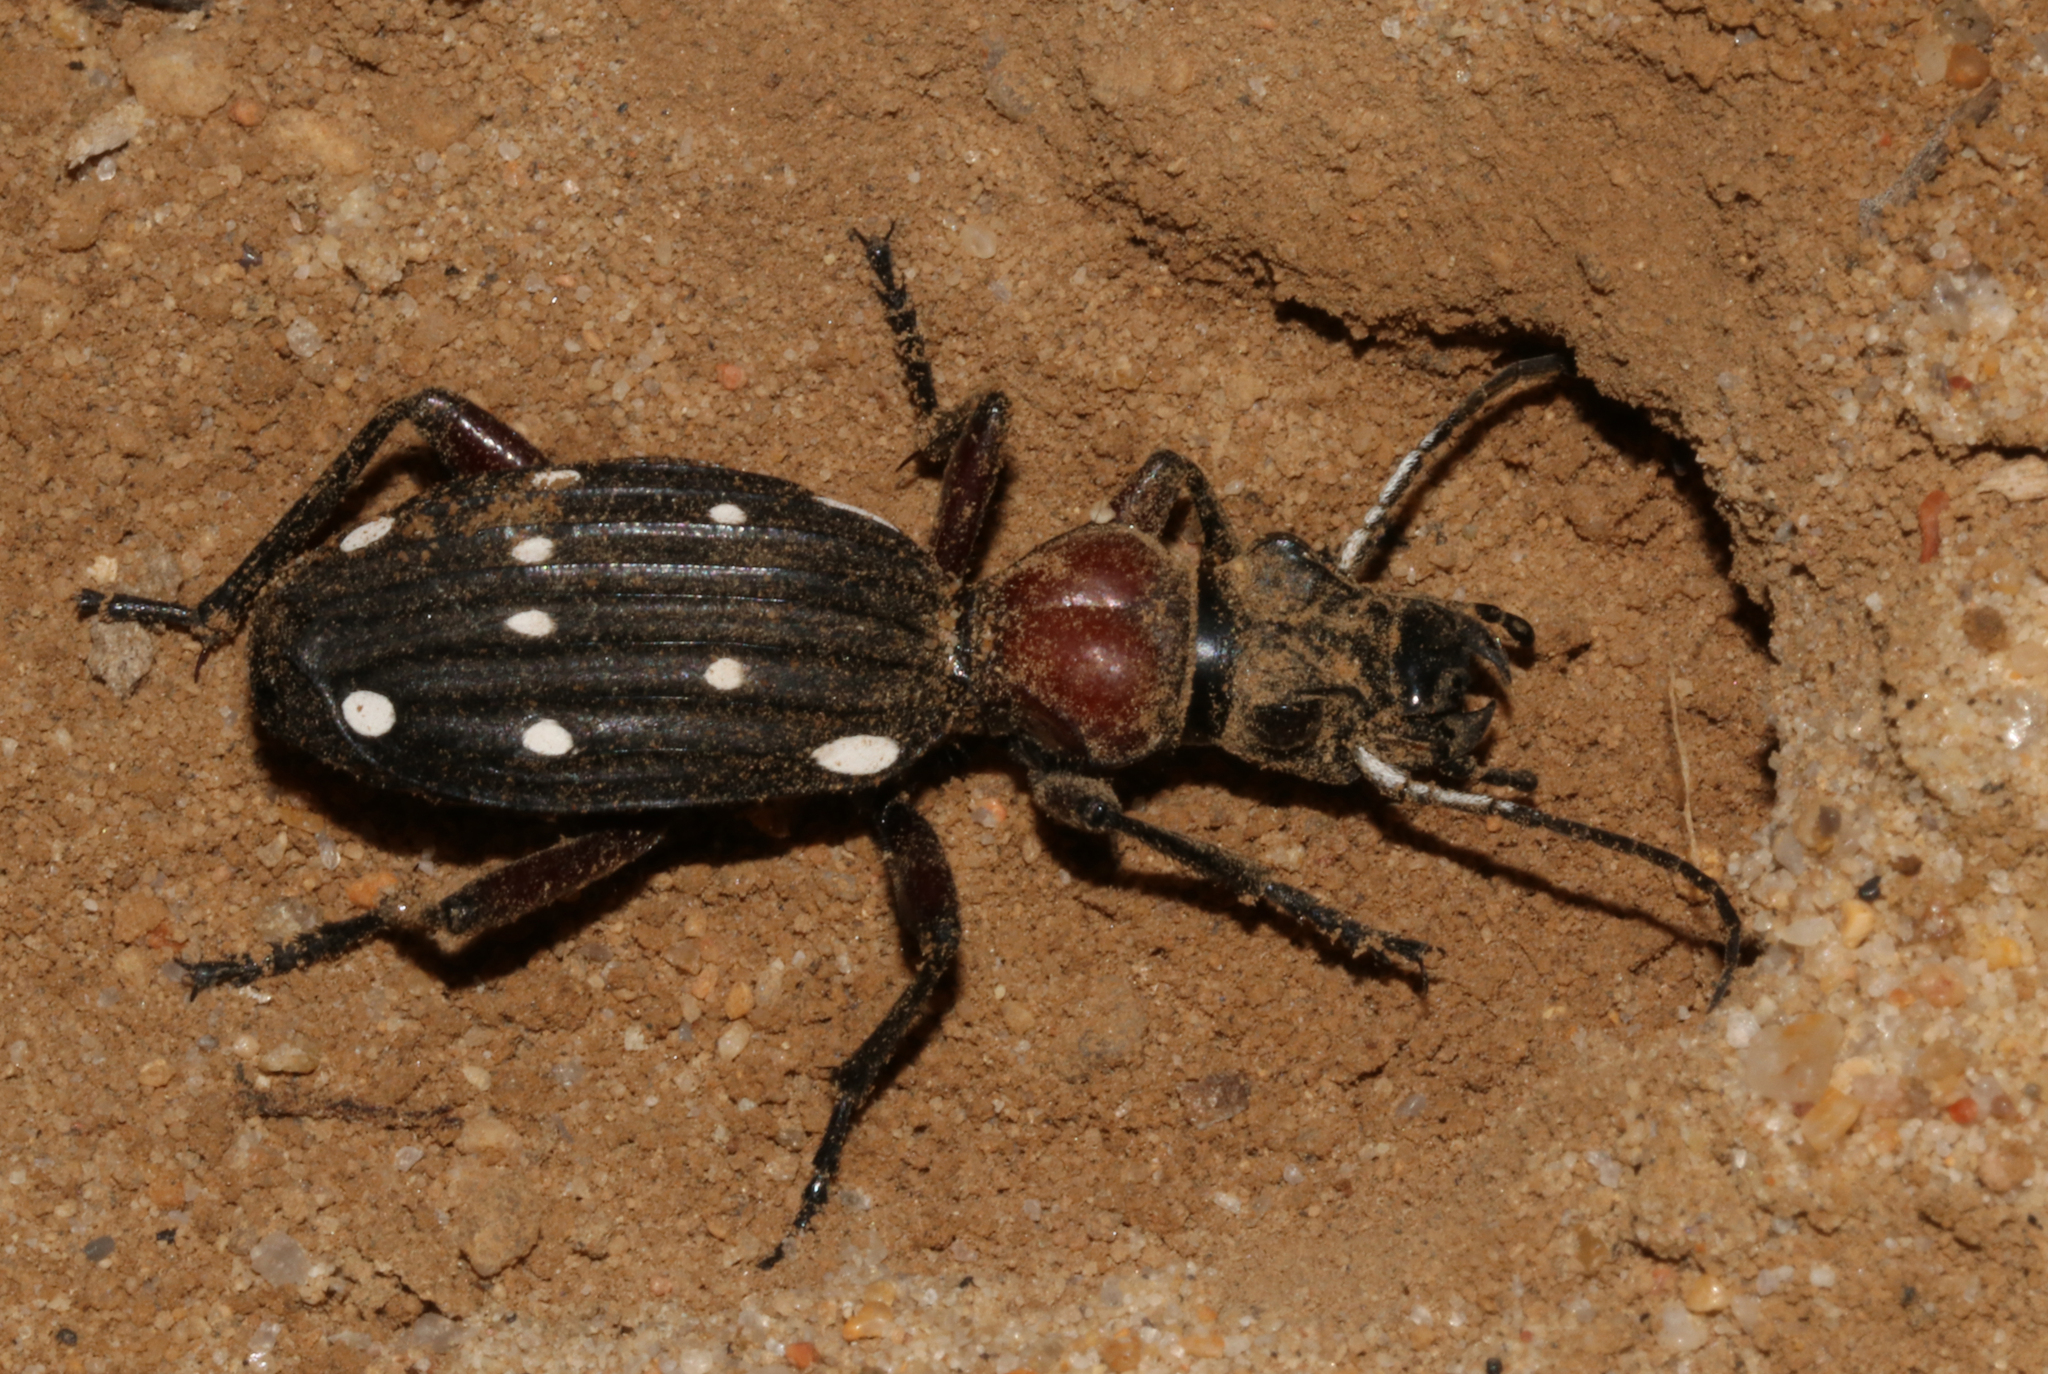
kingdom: Animalia
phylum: Arthropoda
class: Insecta
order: Coleoptera
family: Carabidae
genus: Anthia
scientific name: Anthia decemguttata
